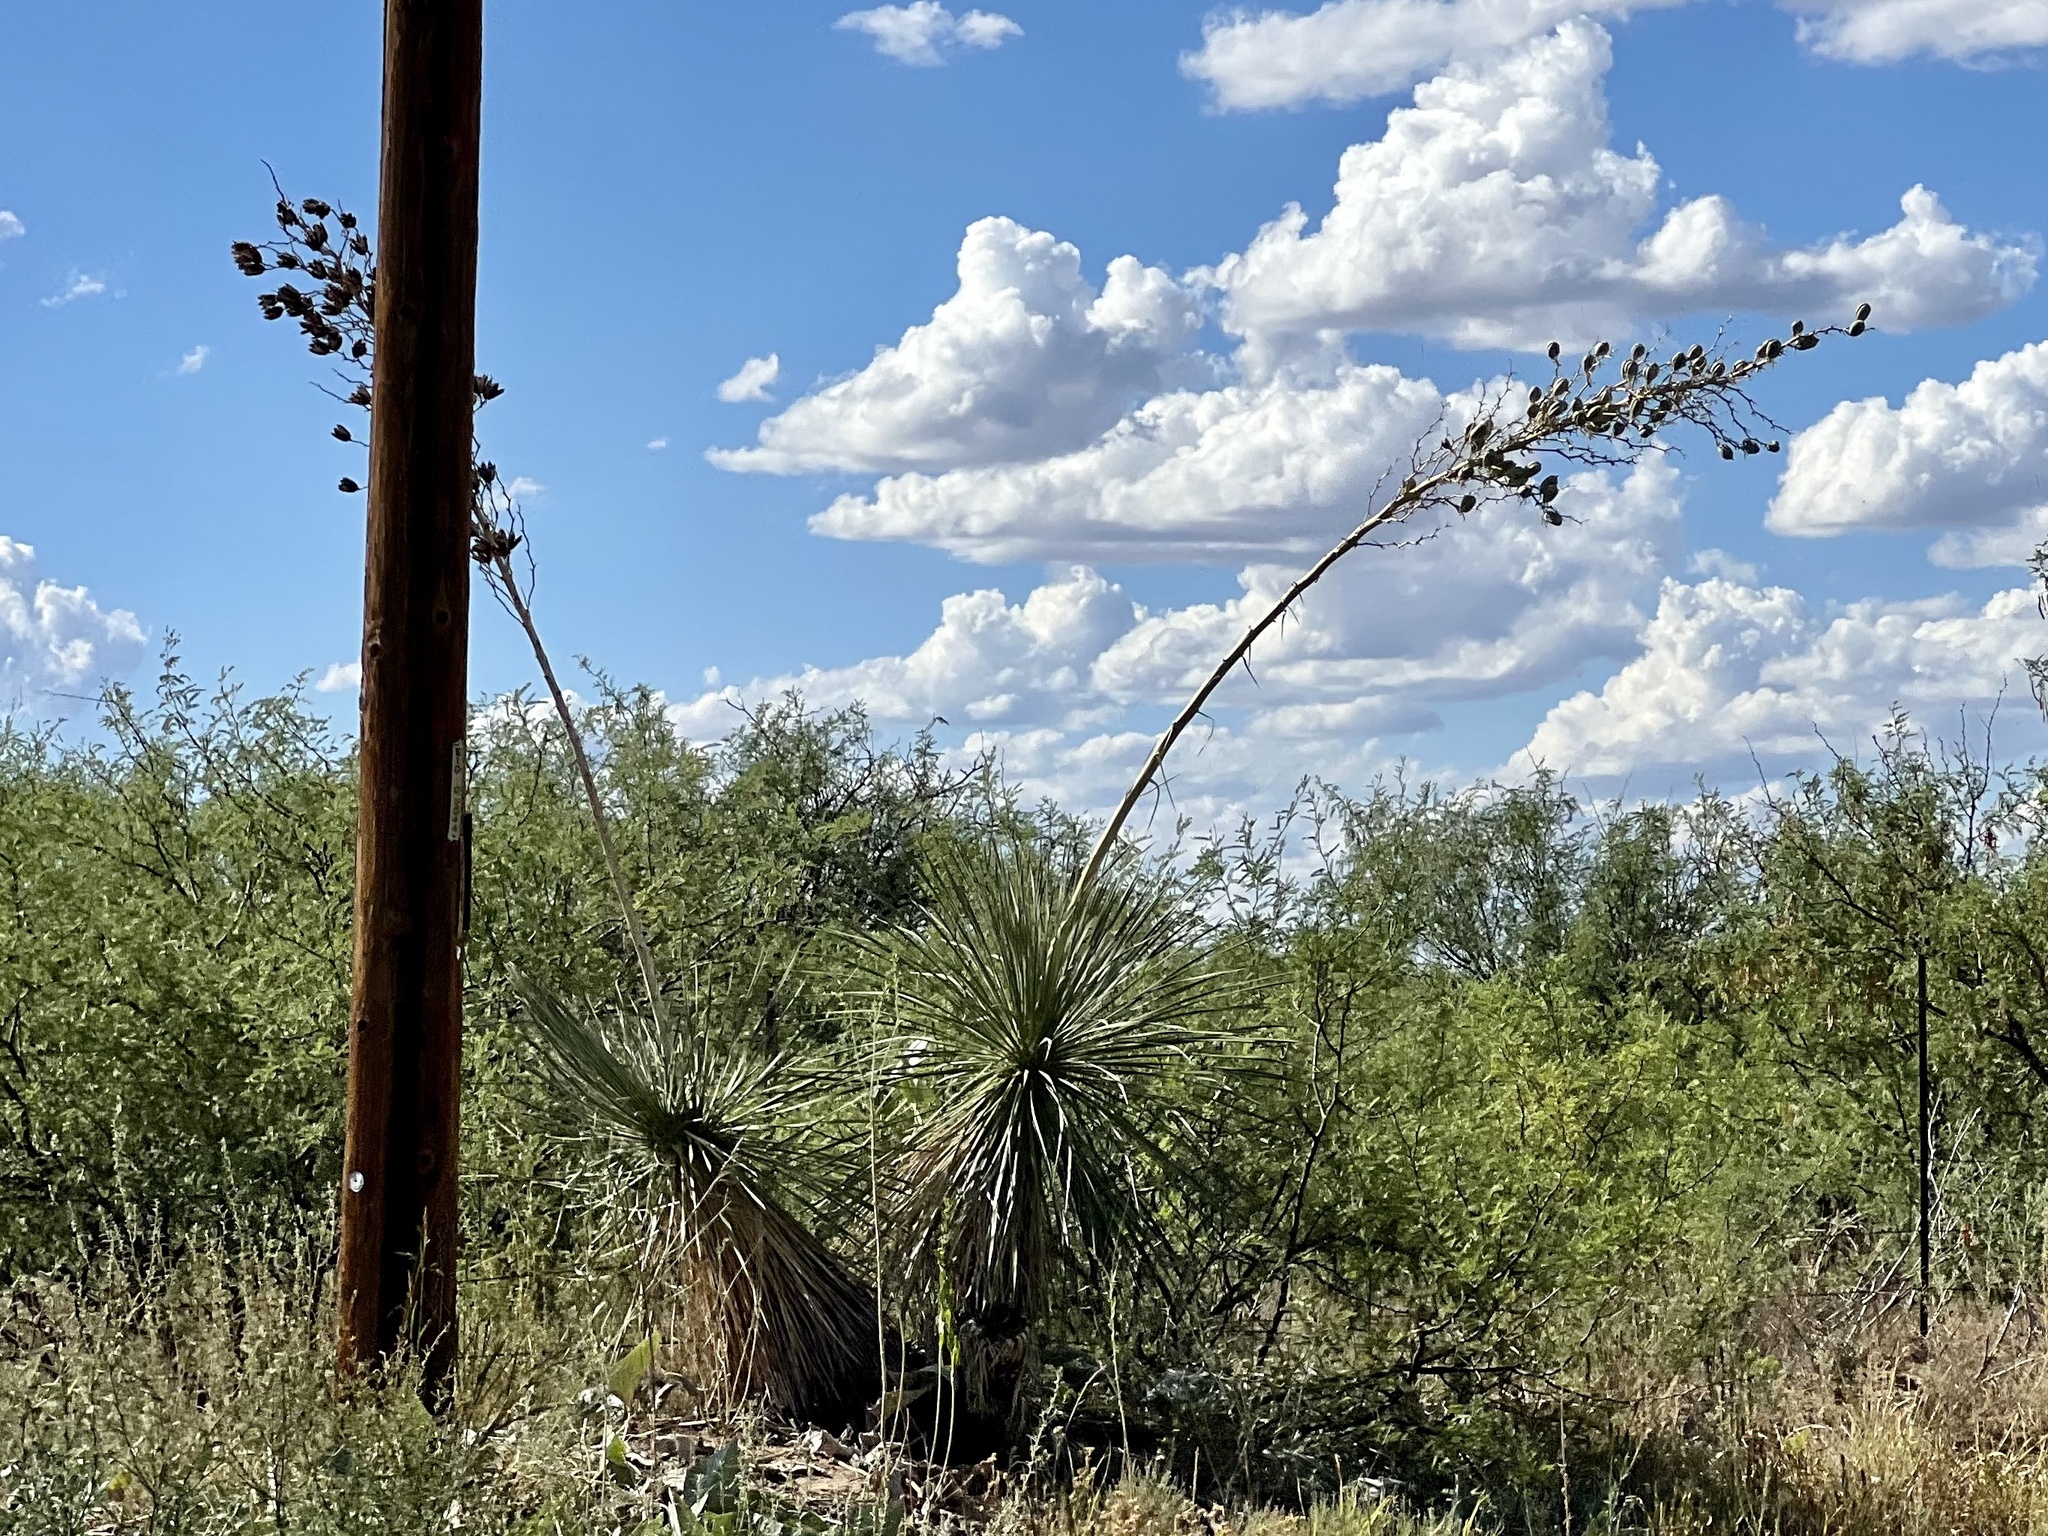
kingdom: Plantae
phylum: Tracheophyta
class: Liliopsida
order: Asparagales
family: Asparagaceae
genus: Yucca
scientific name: Yucca elata
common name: Palmella
